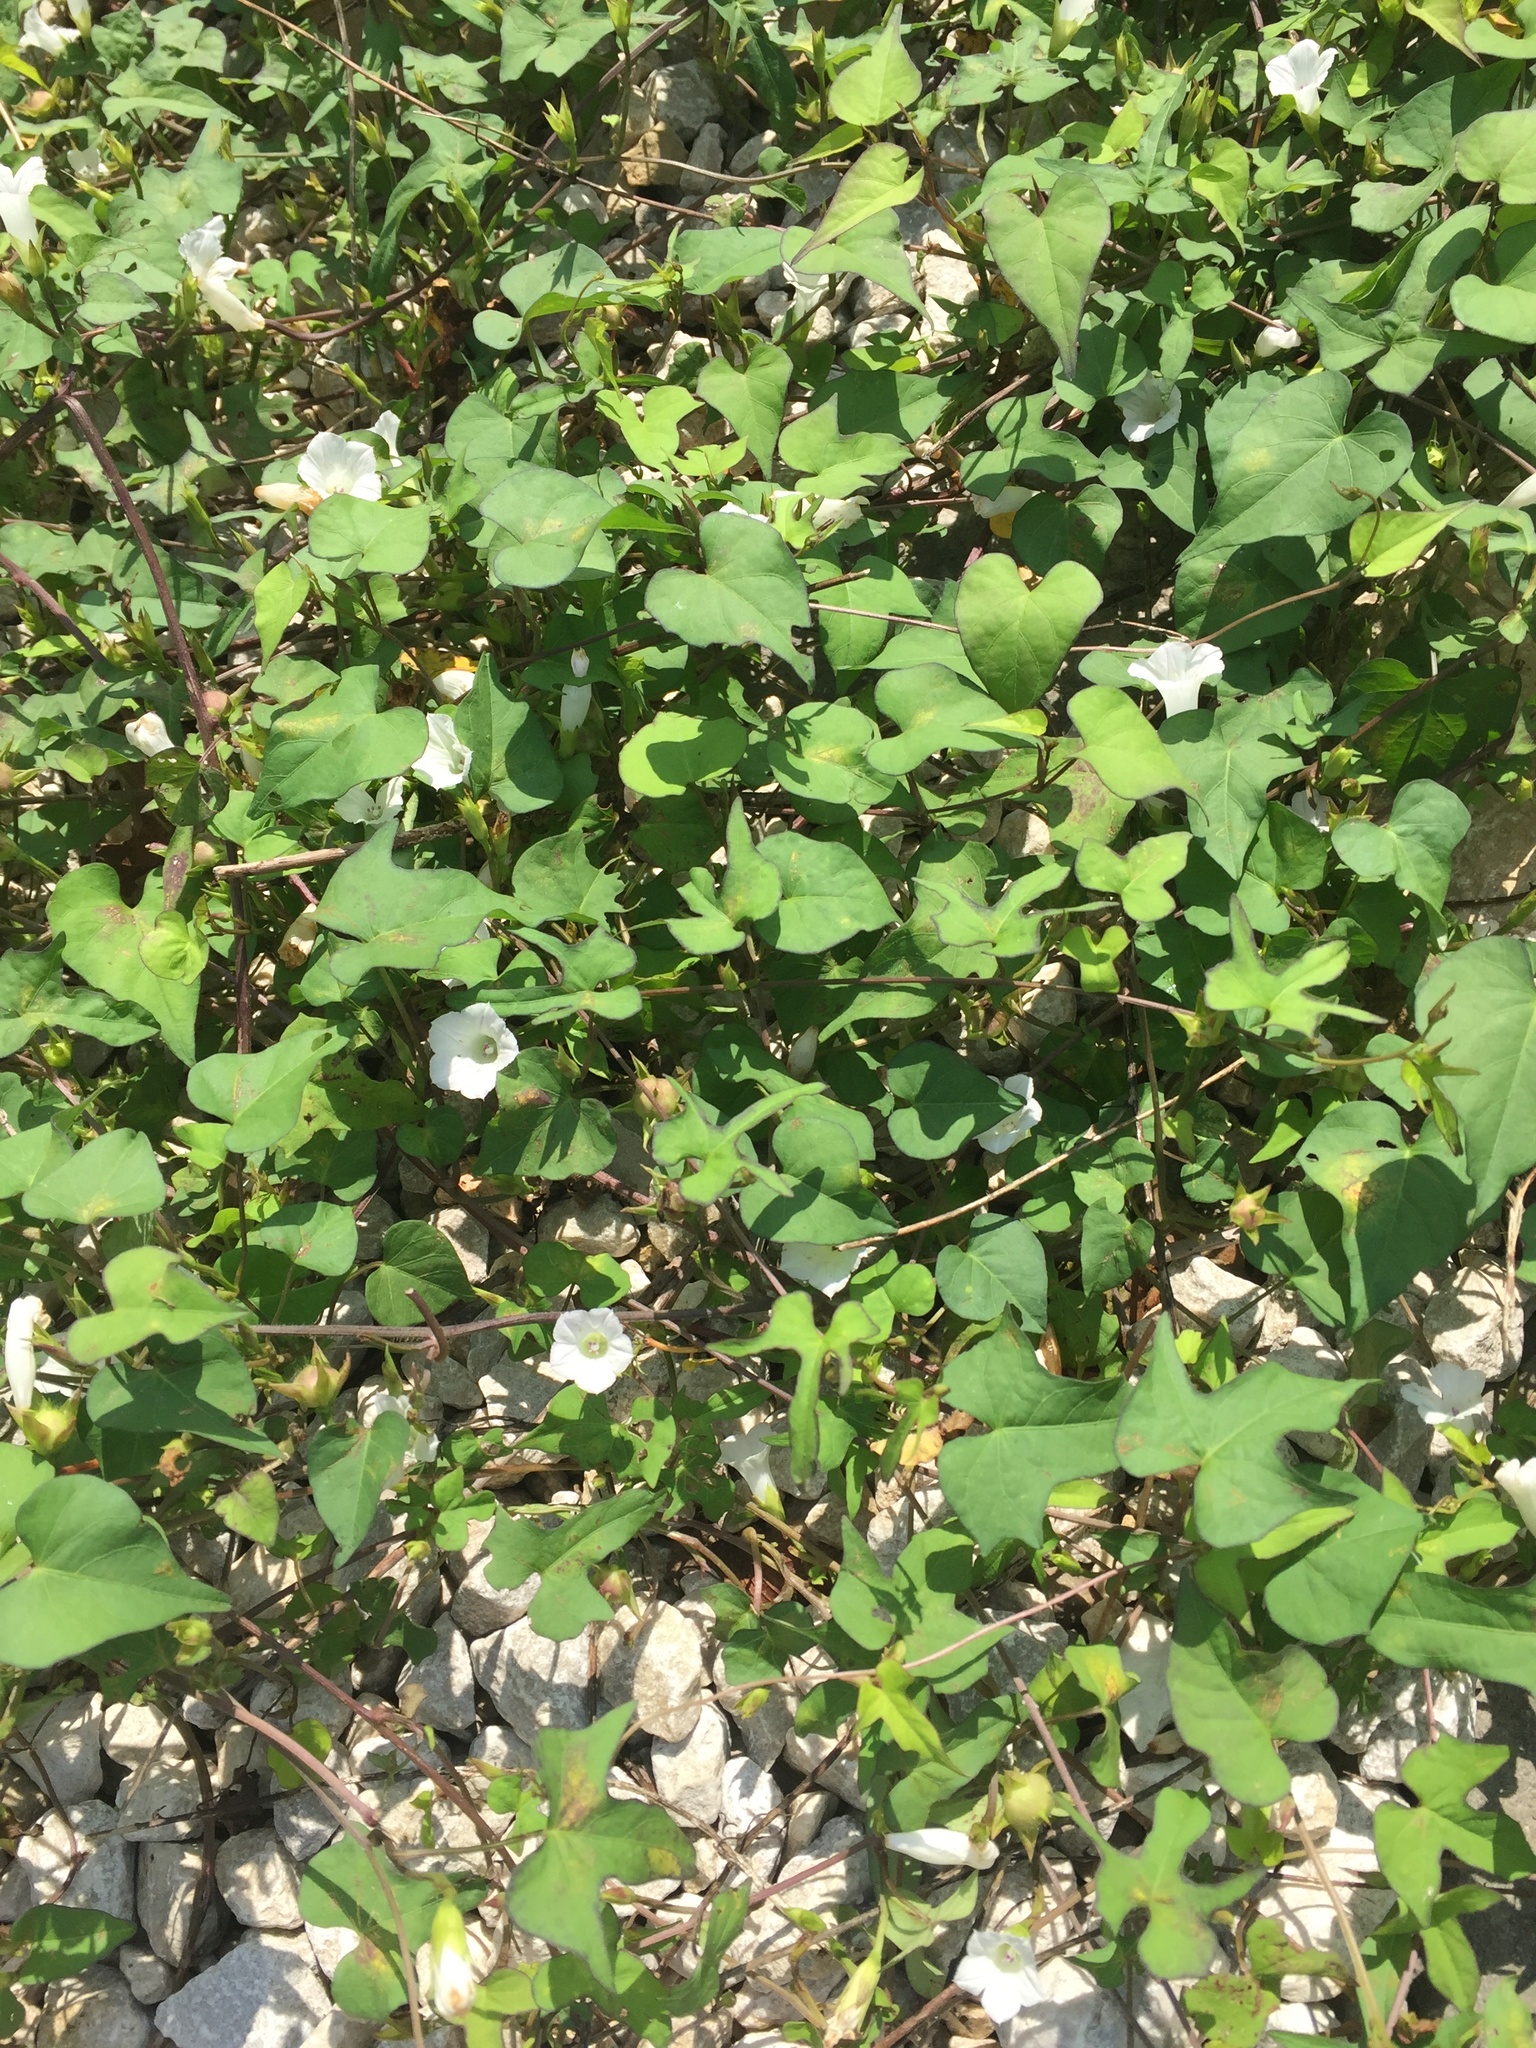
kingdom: Plantae
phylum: Tracheophyta
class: Magnoliopsida
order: Solanales
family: Convolvulaceae
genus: Ipomoea
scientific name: Ipomoea lacunosa
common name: White morning-glory
